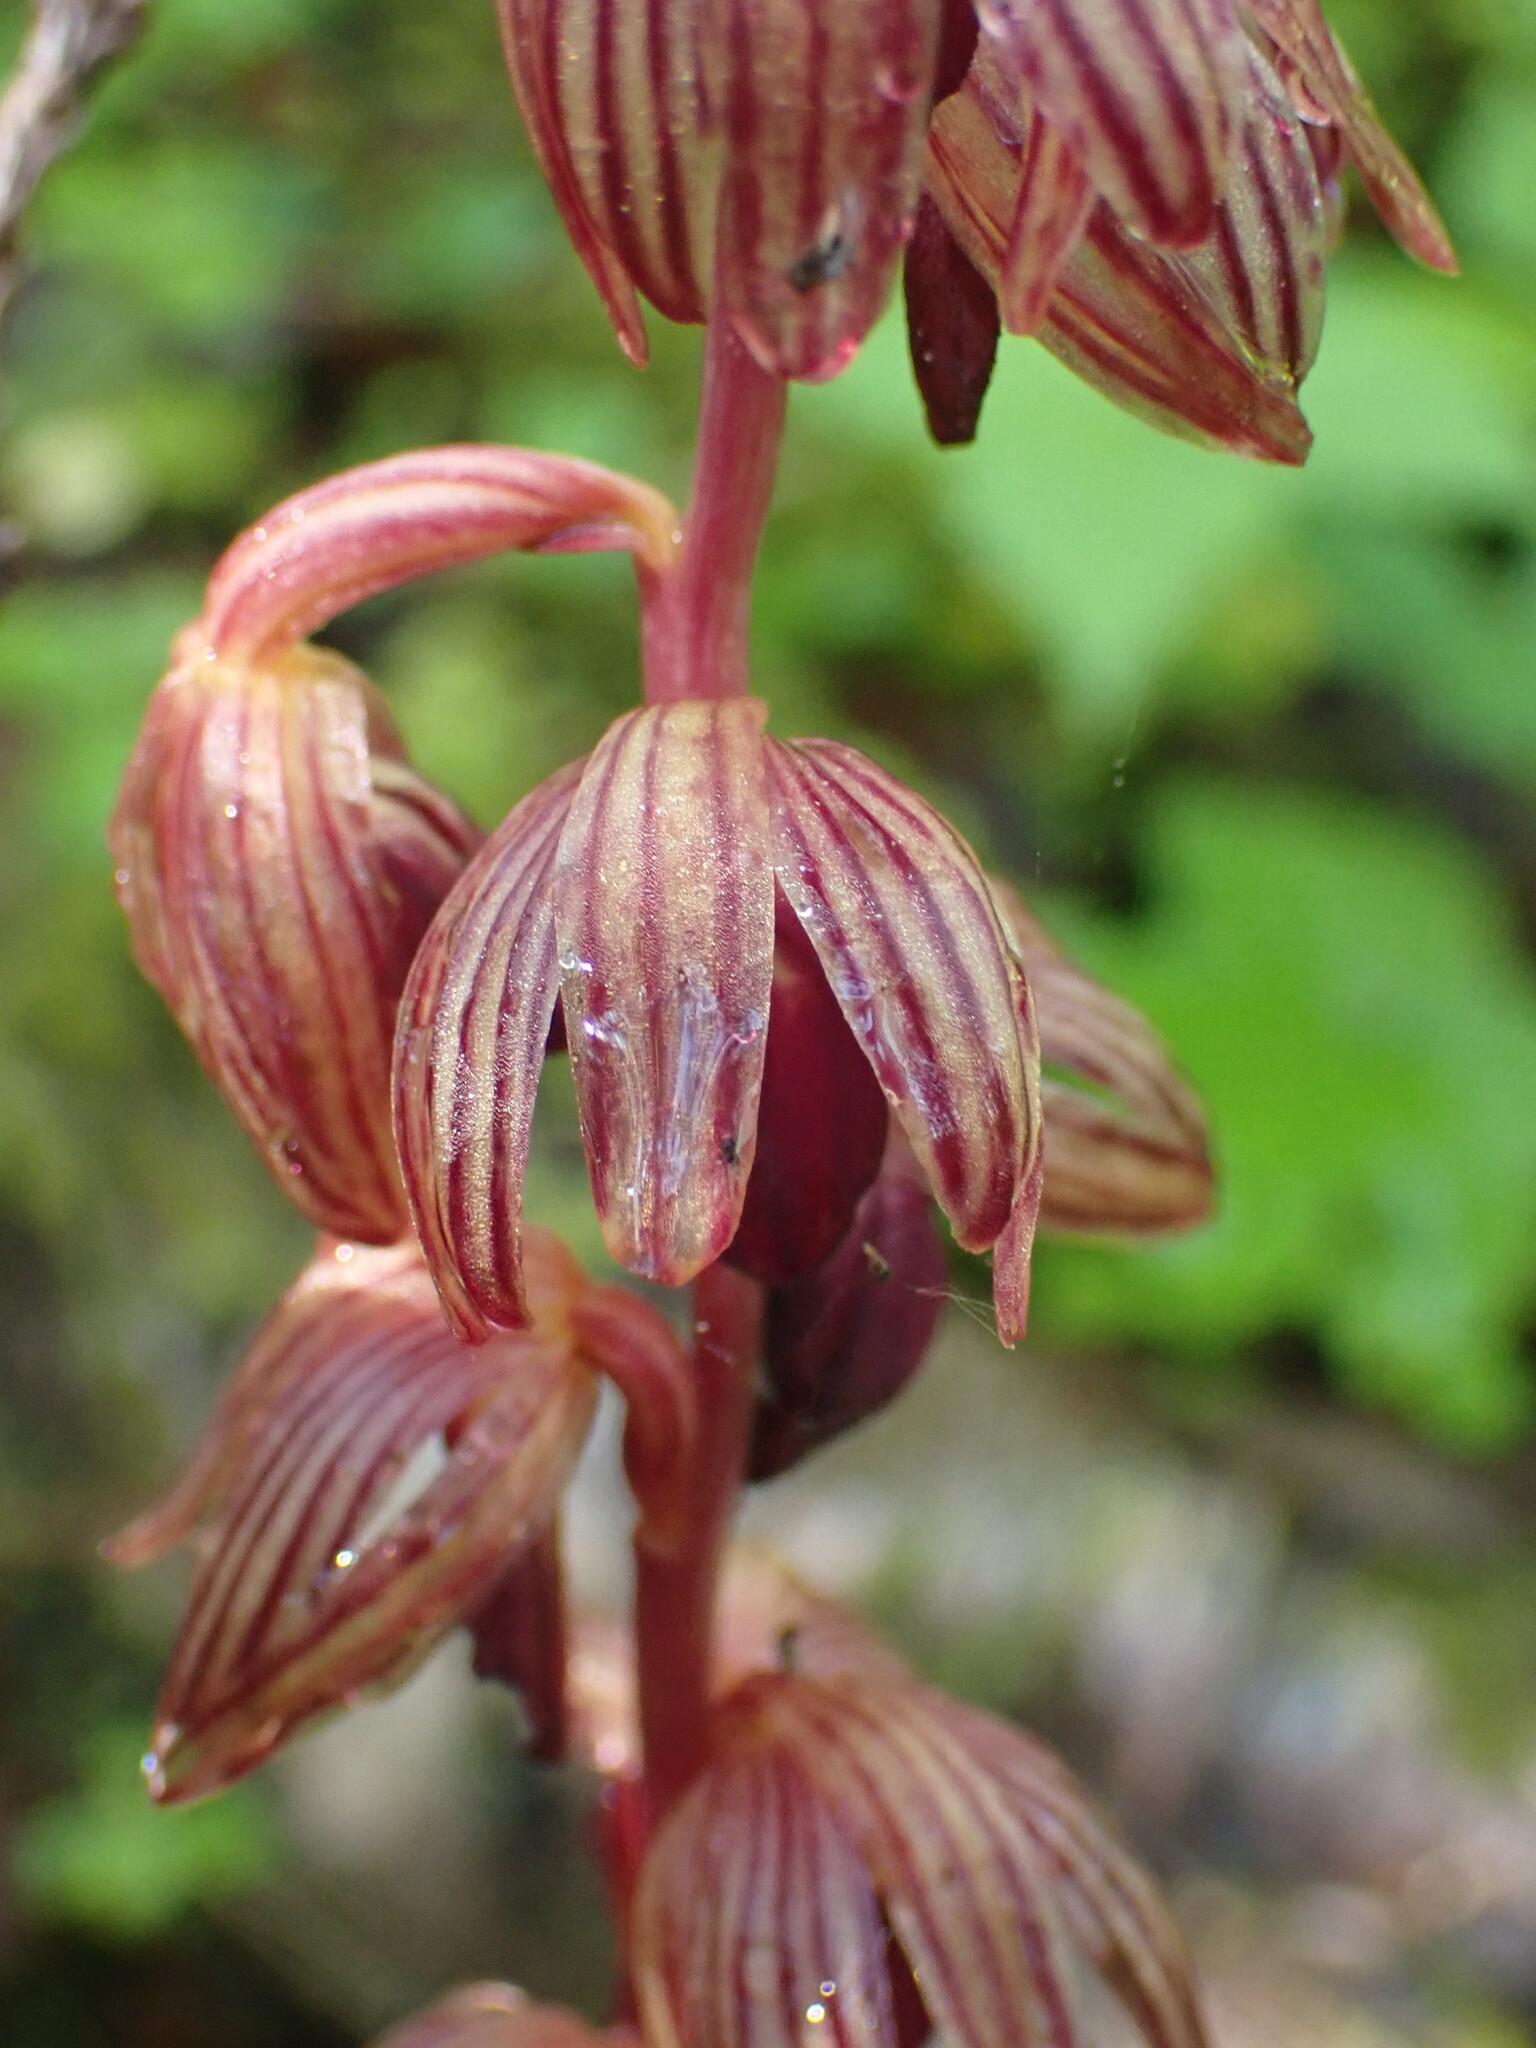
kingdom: Plantae
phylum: Tracheophyta
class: Liliopsida
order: Asparagales
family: Orchidaceae
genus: Corallorhiza
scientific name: Corallorhiza striata
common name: Hooded coralroot
